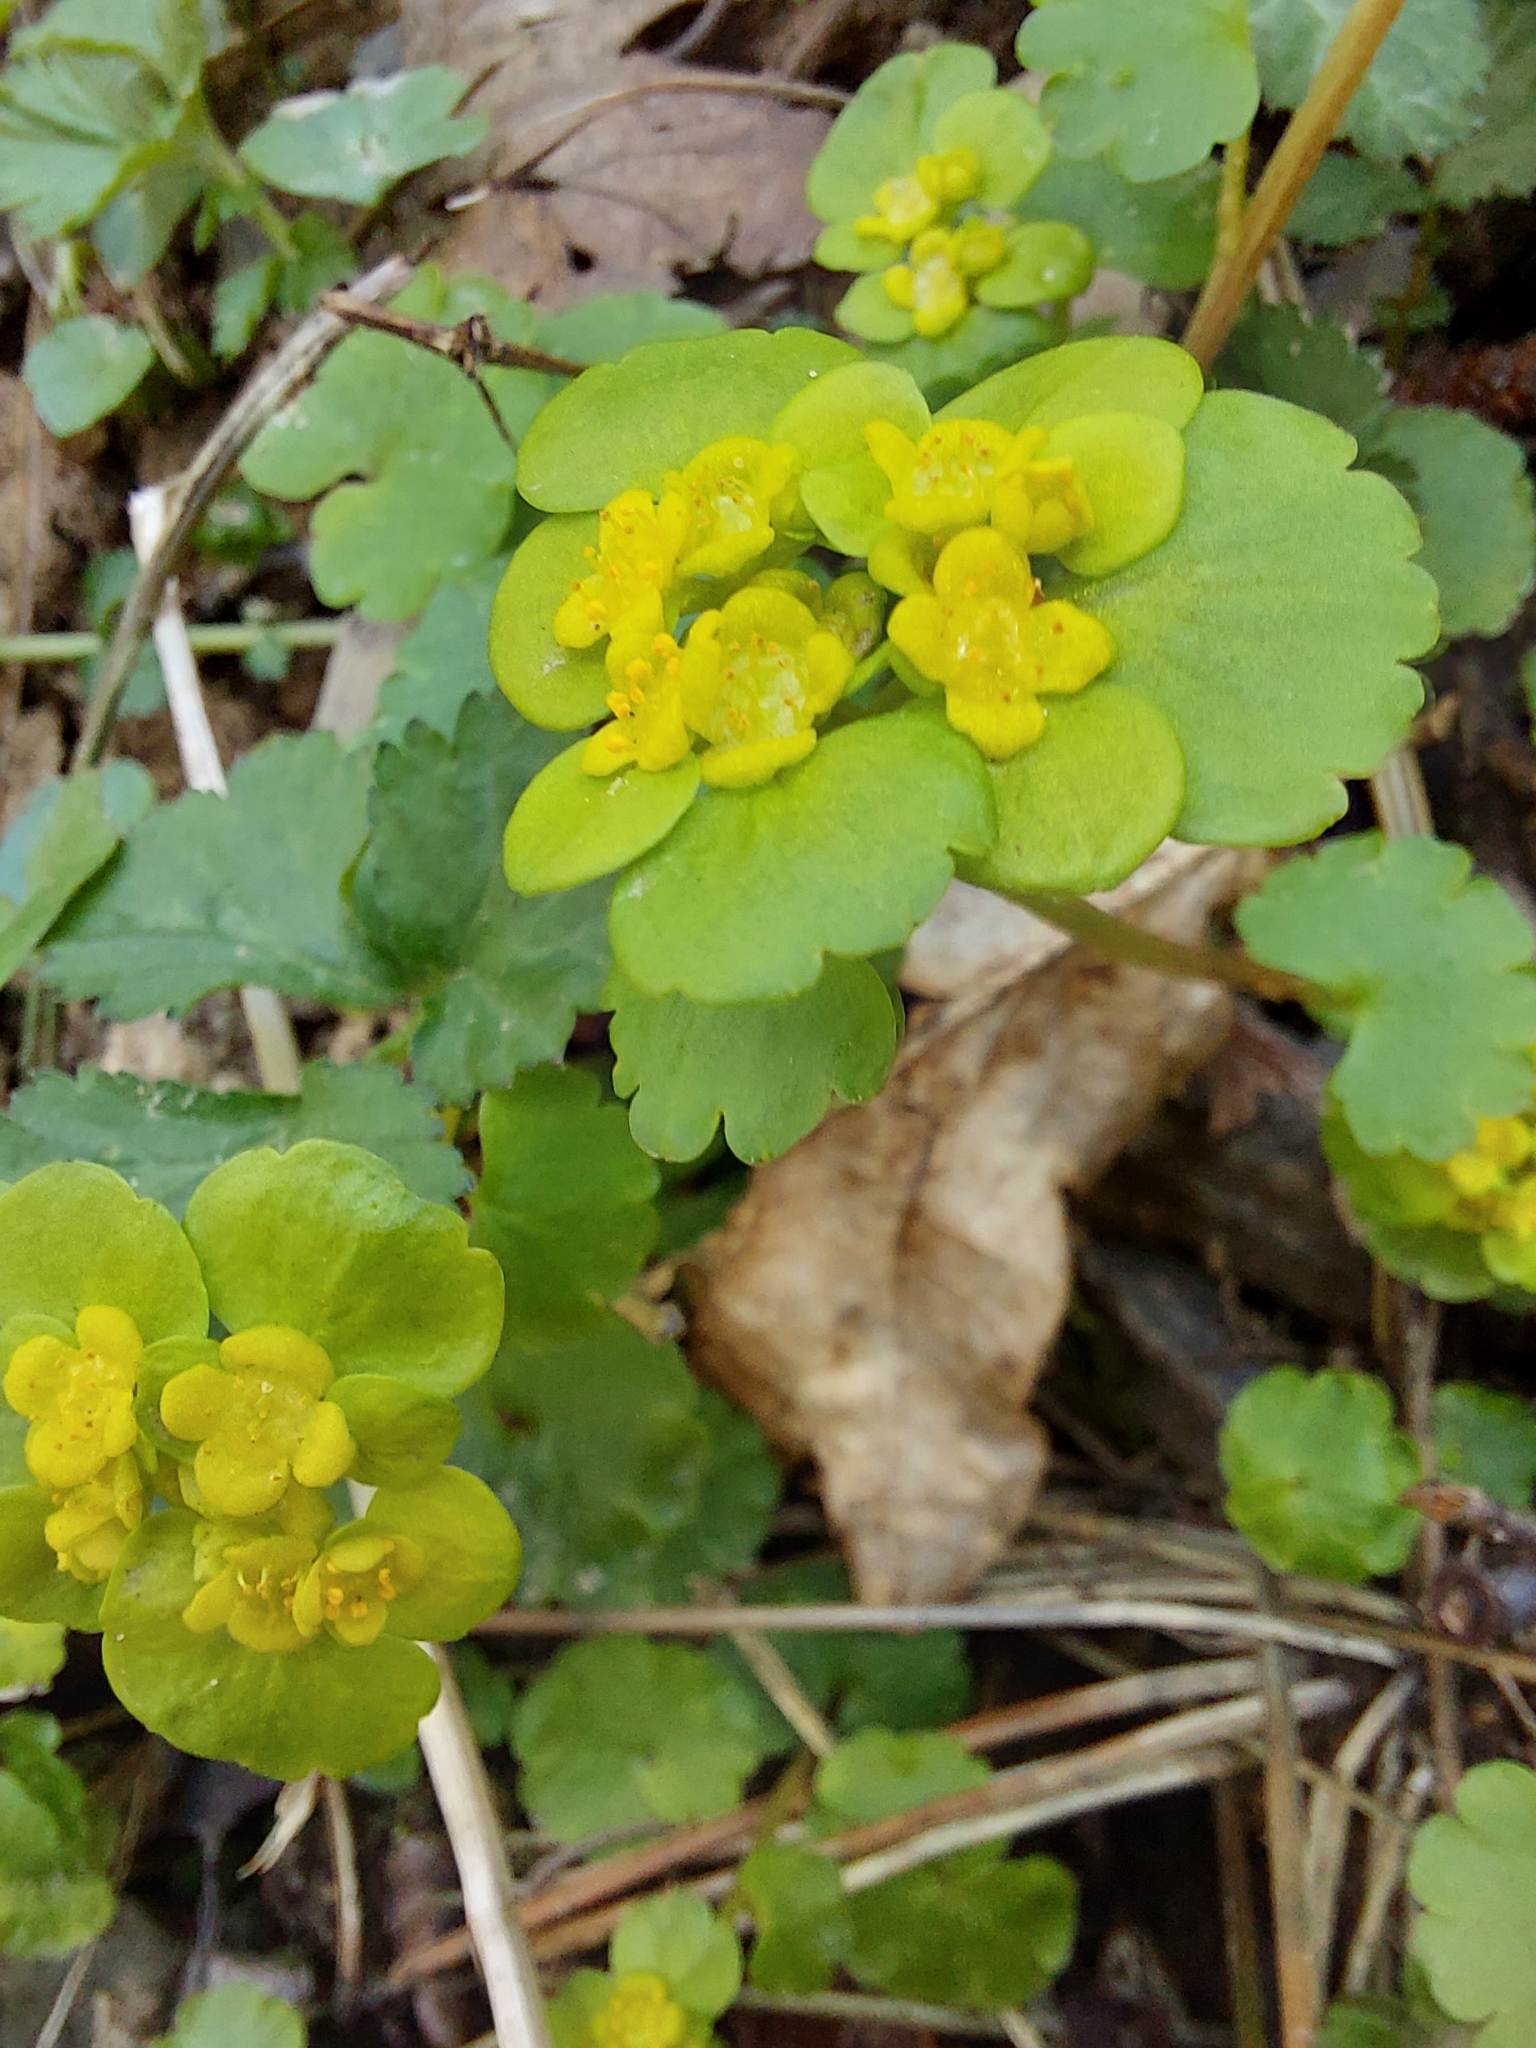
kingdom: Plantae
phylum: Tracheophyta
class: Magnoliopsida
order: Saxifragales
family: Saxifragaceae
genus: Chrysosplenium
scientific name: Chrysosplenium alternifolium
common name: Alternate-leaved golden-saxifrage
